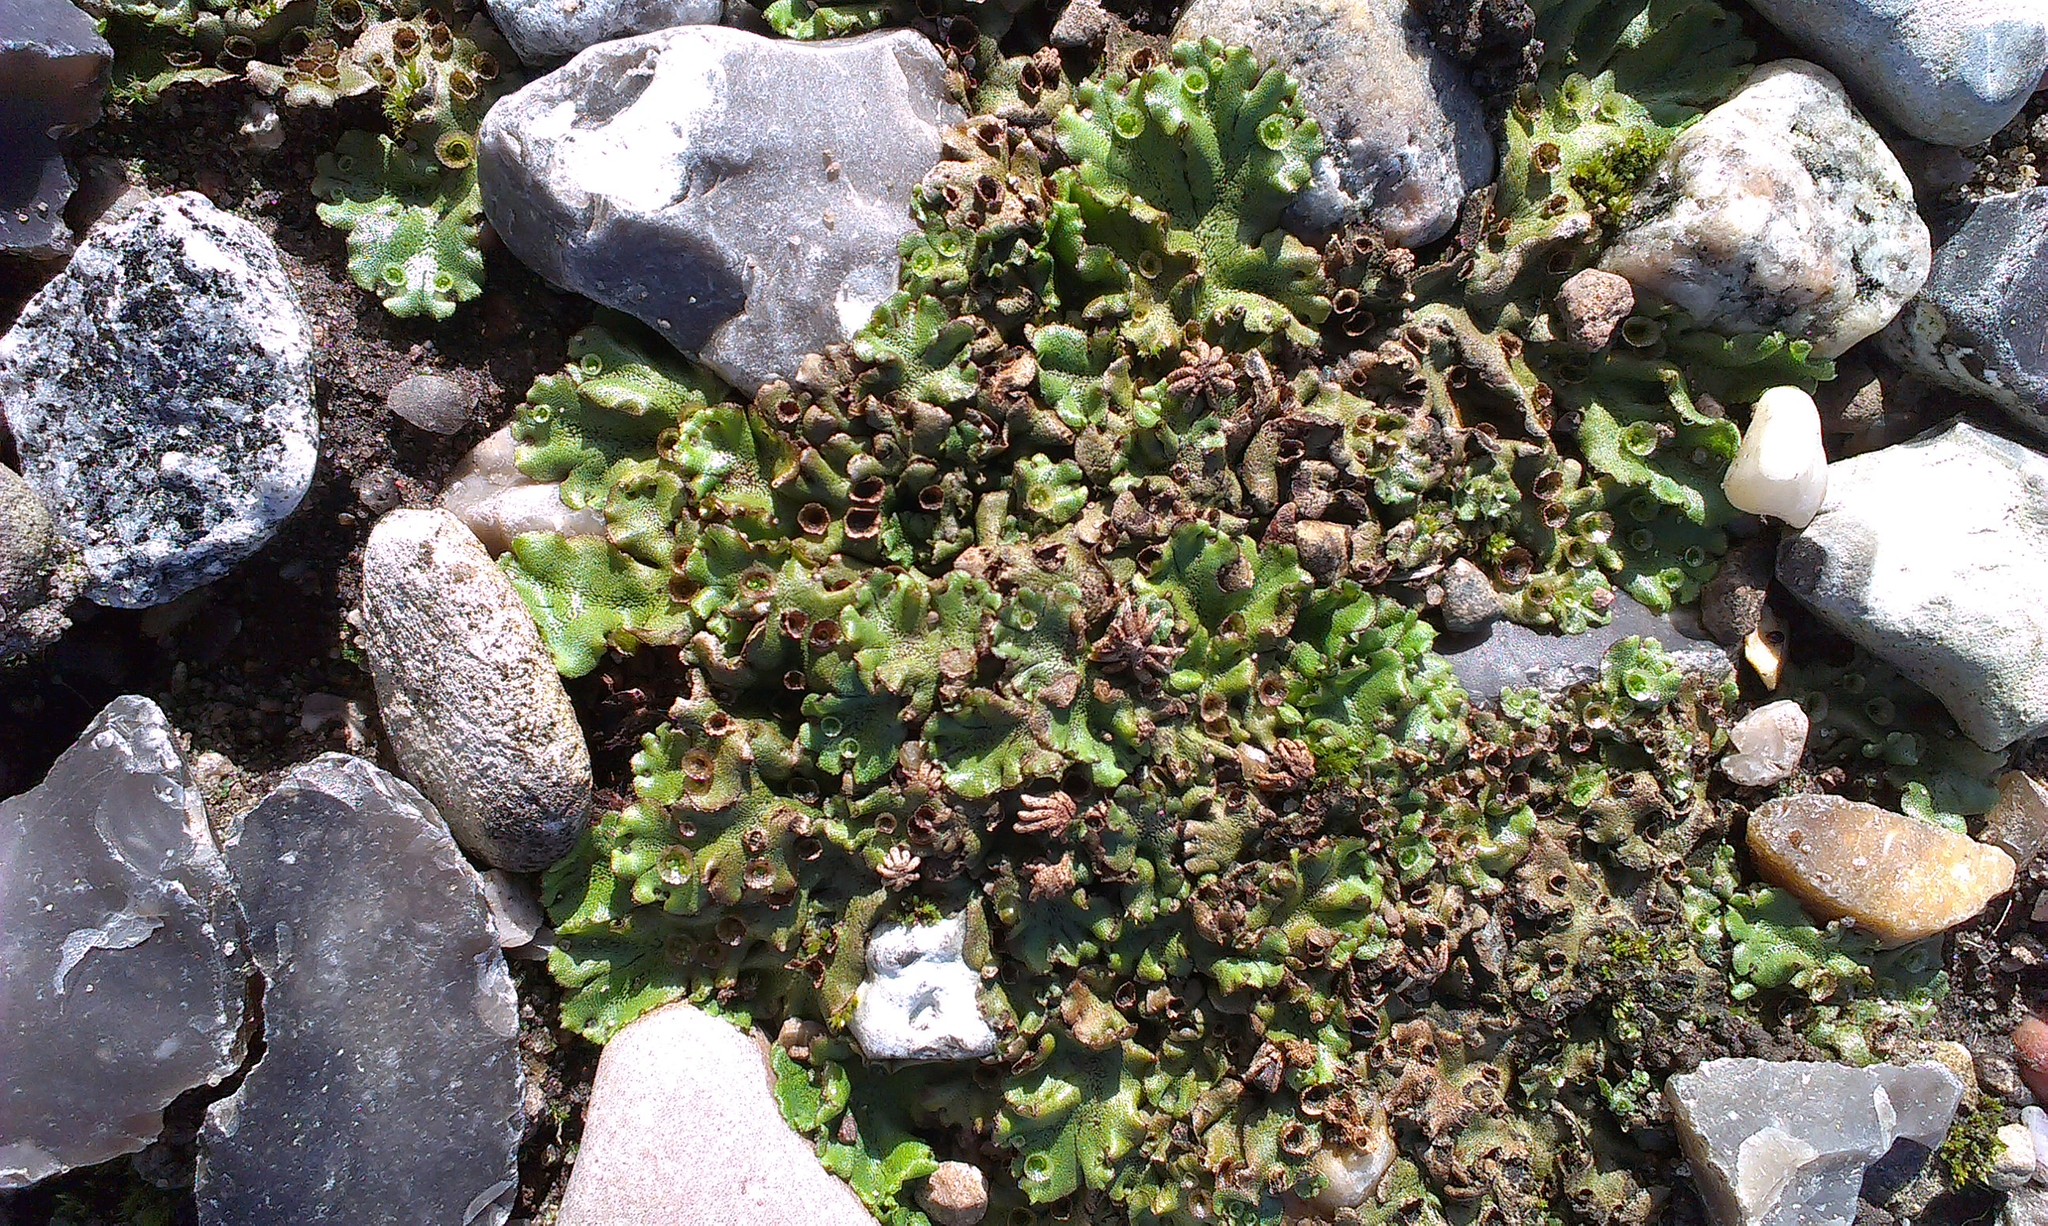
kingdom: Plantae
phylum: Marchantiophyta
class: Marchantiopsida
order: Marchantiales
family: Marchantiaceae
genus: Marchantia
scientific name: Marchantia polymorpha
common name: Common liverwort
